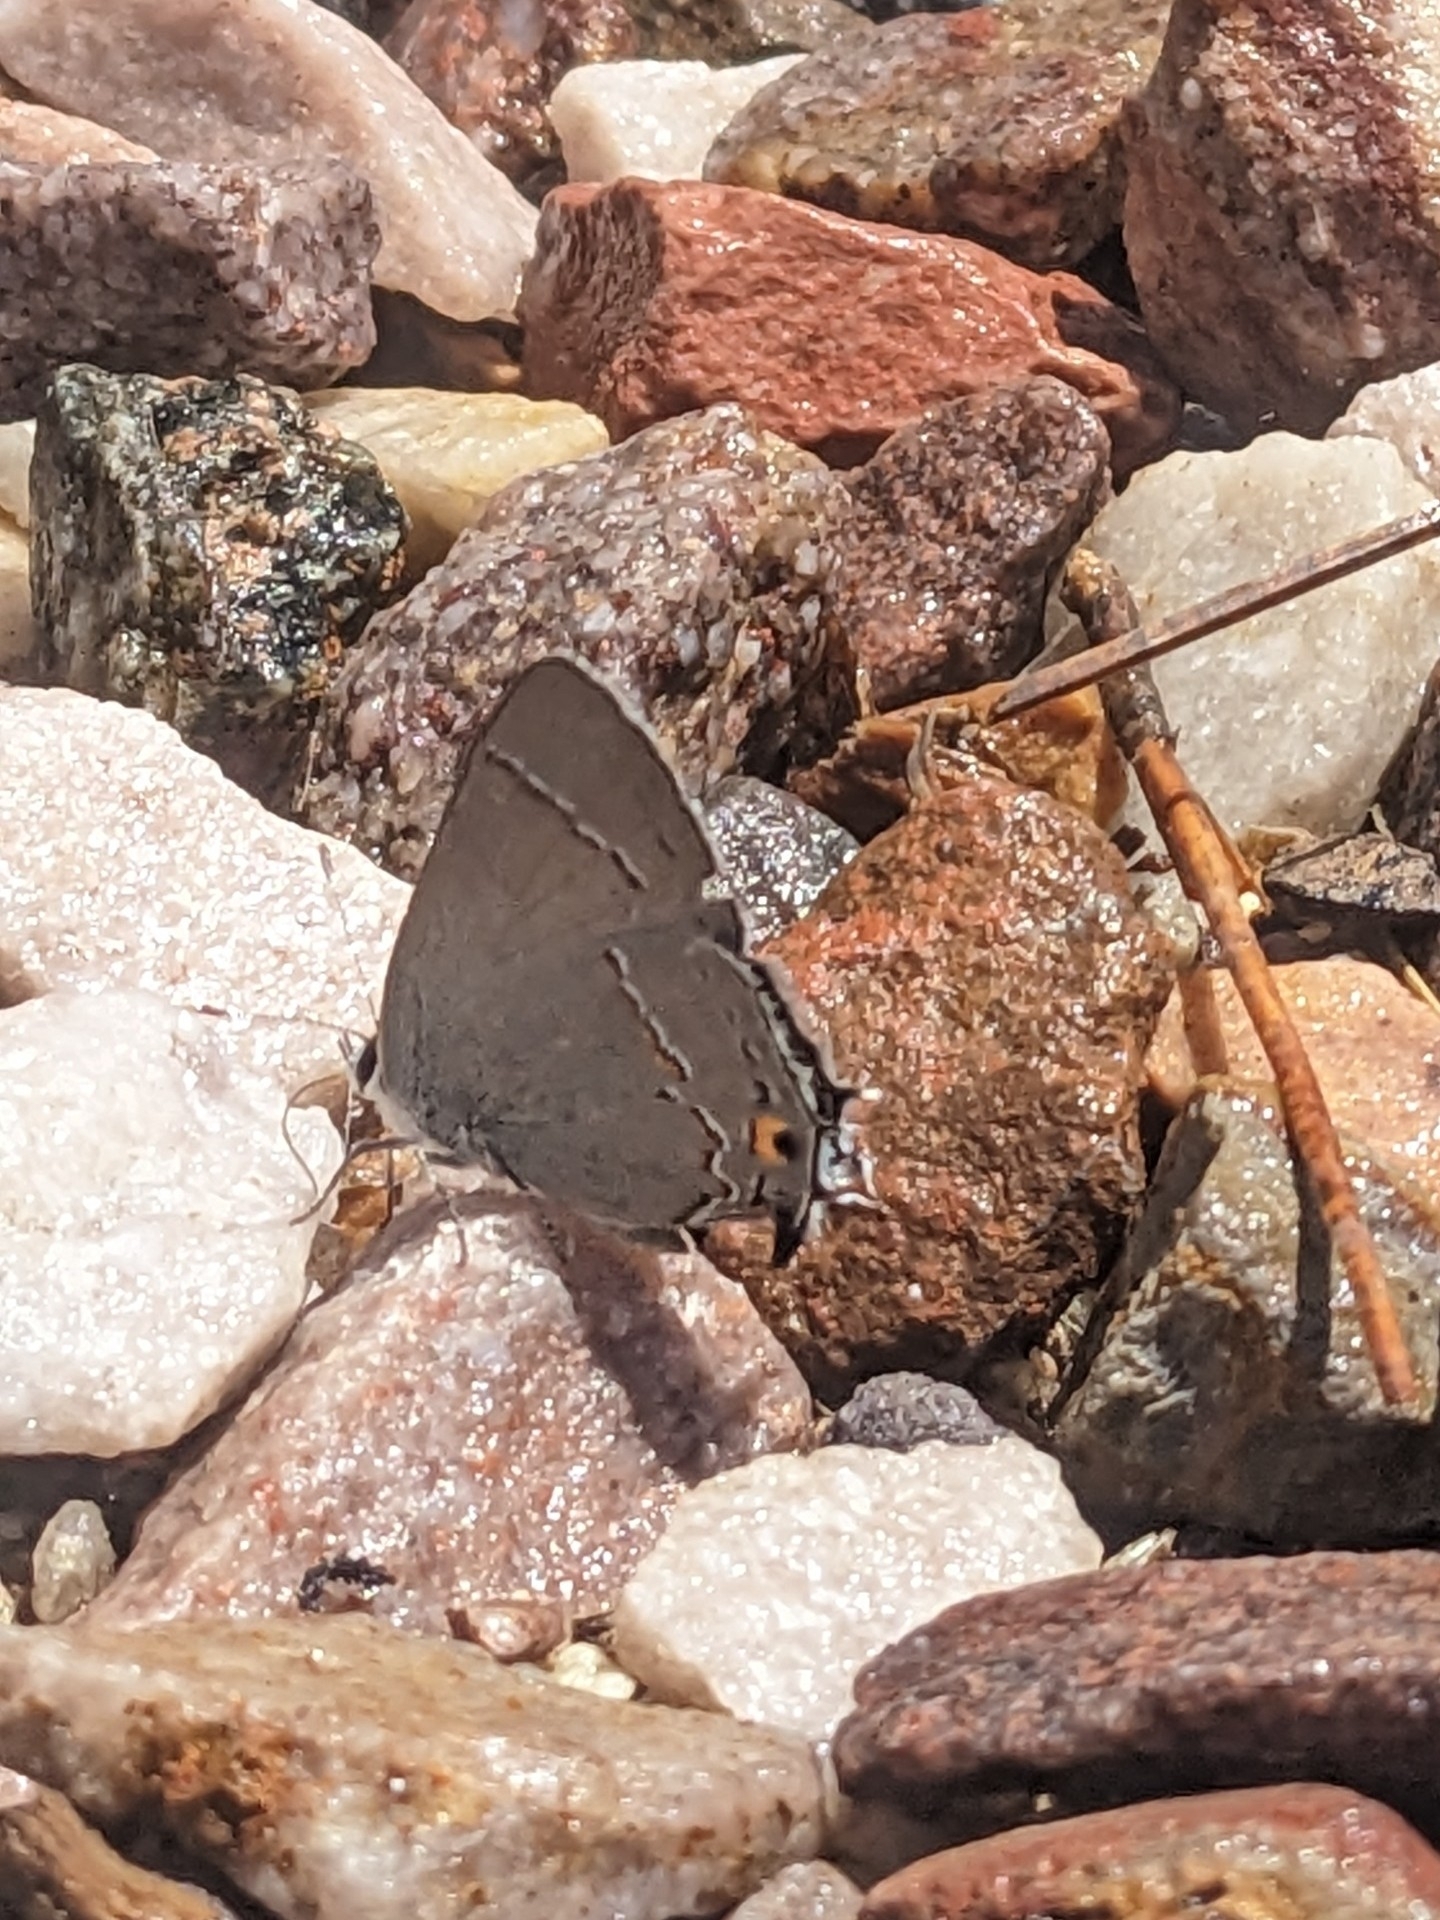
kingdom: Animalia
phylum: Arthropoda
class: Insecta
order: Lepidoptera
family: Lycaenidae
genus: Strymon
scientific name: Strymon melinus
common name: Gray hairstreak
